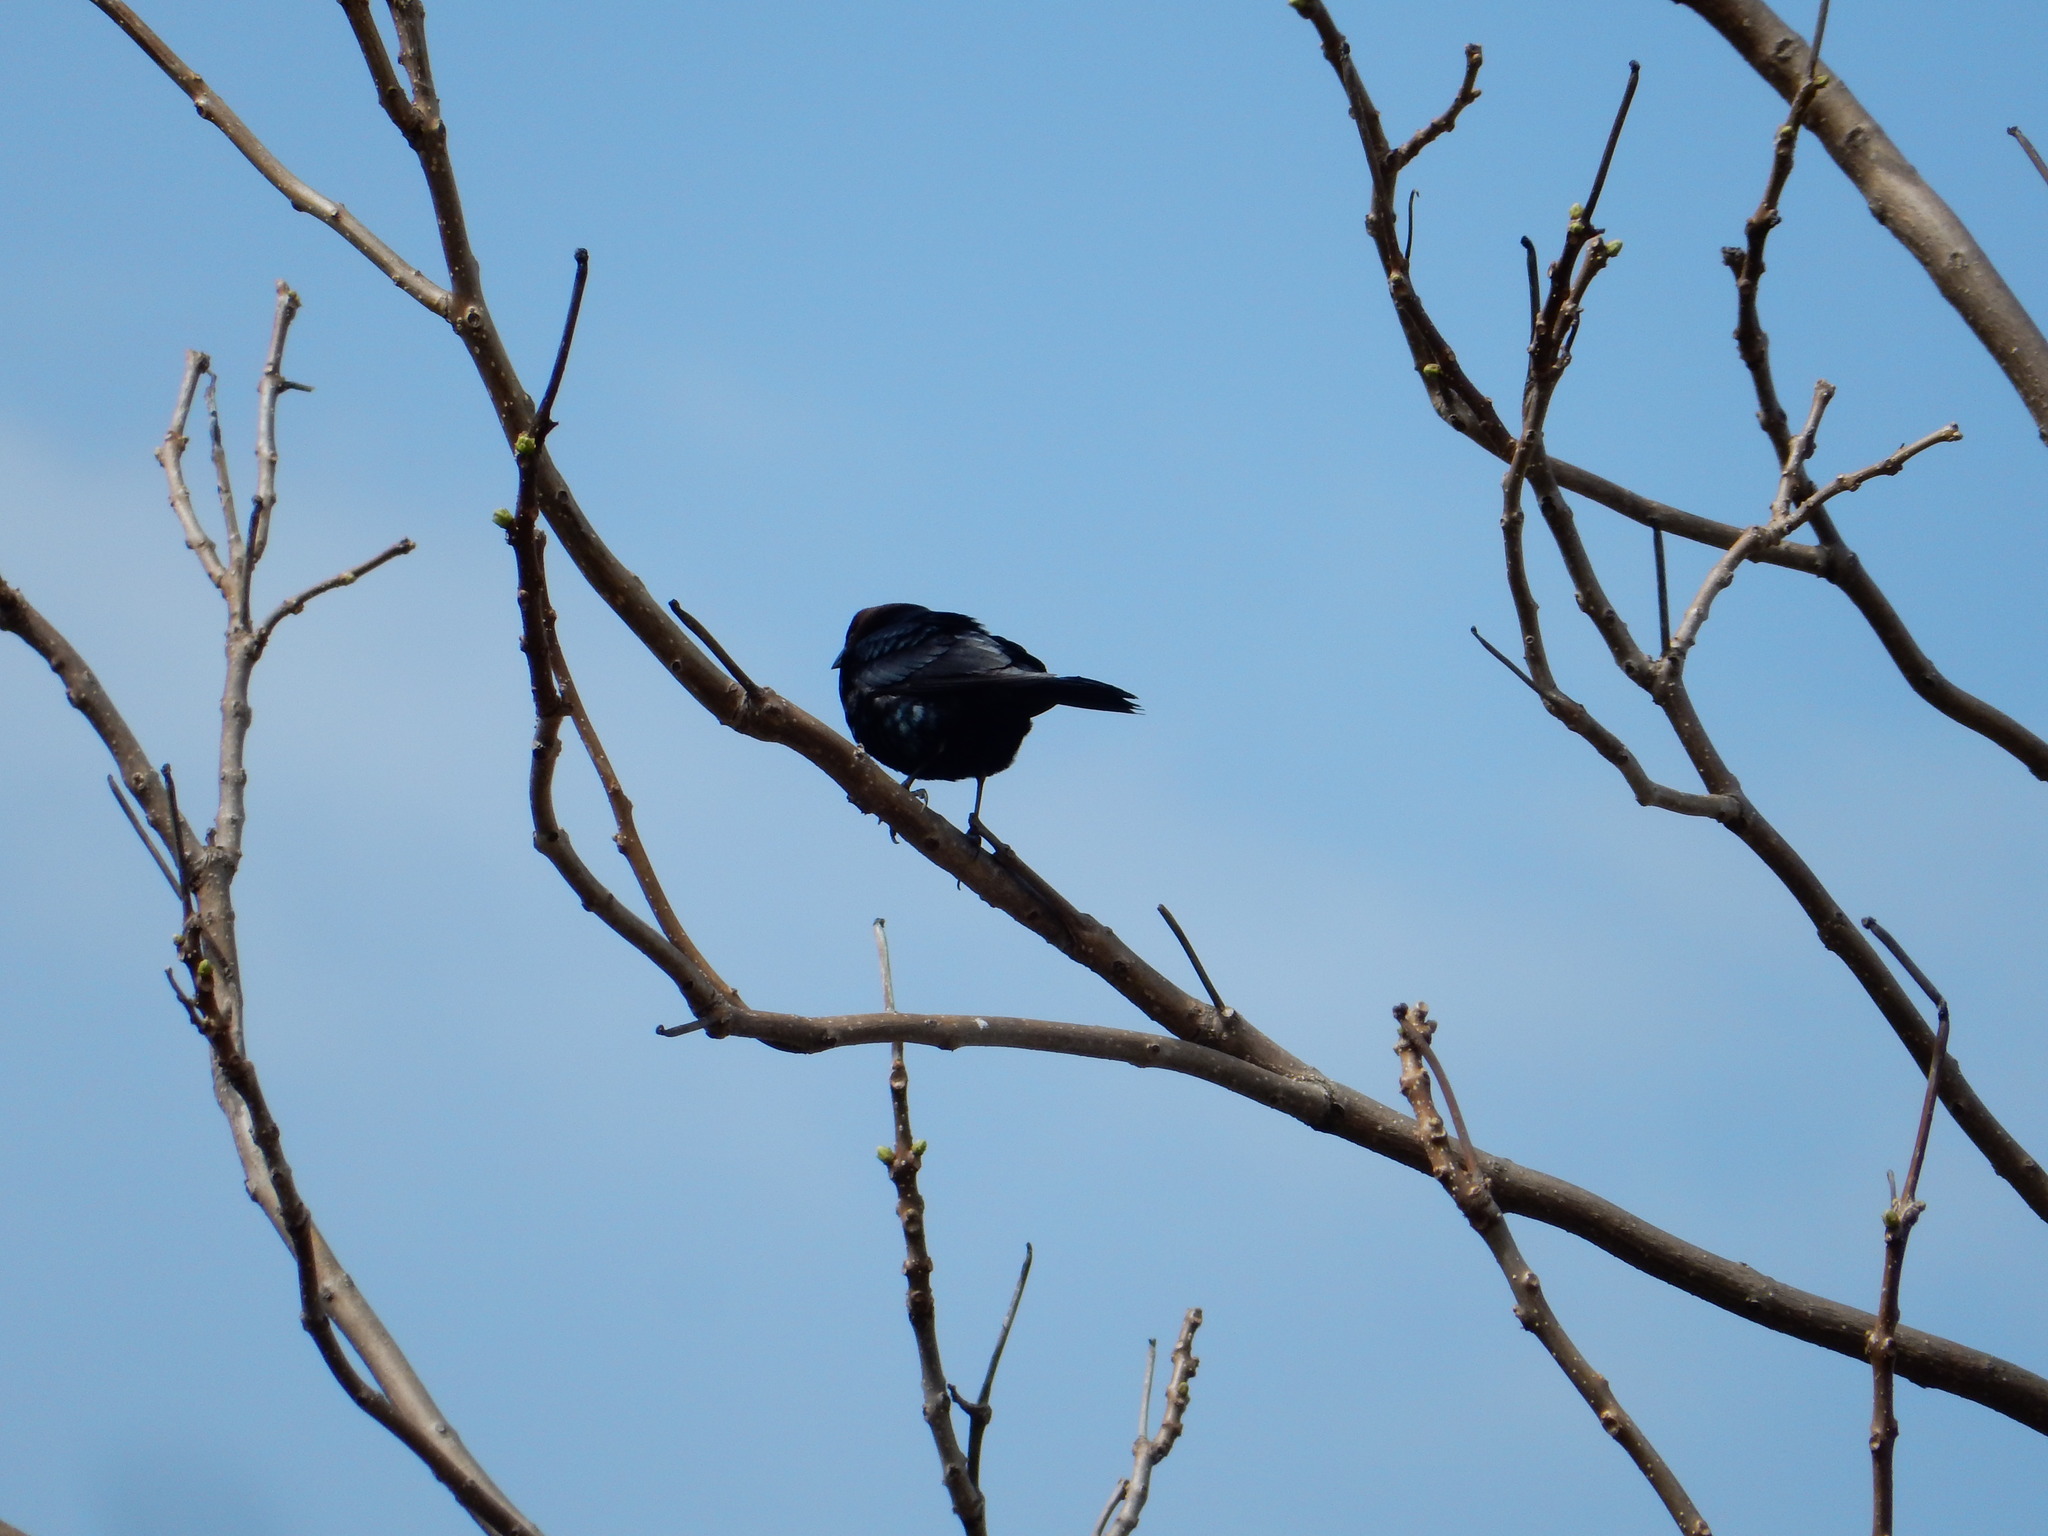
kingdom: Animalia
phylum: Chordata
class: Aves
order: Passeriformes
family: Icteridae
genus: Molothrus
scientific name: Molothrus ater
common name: Brown-headed cowbird
